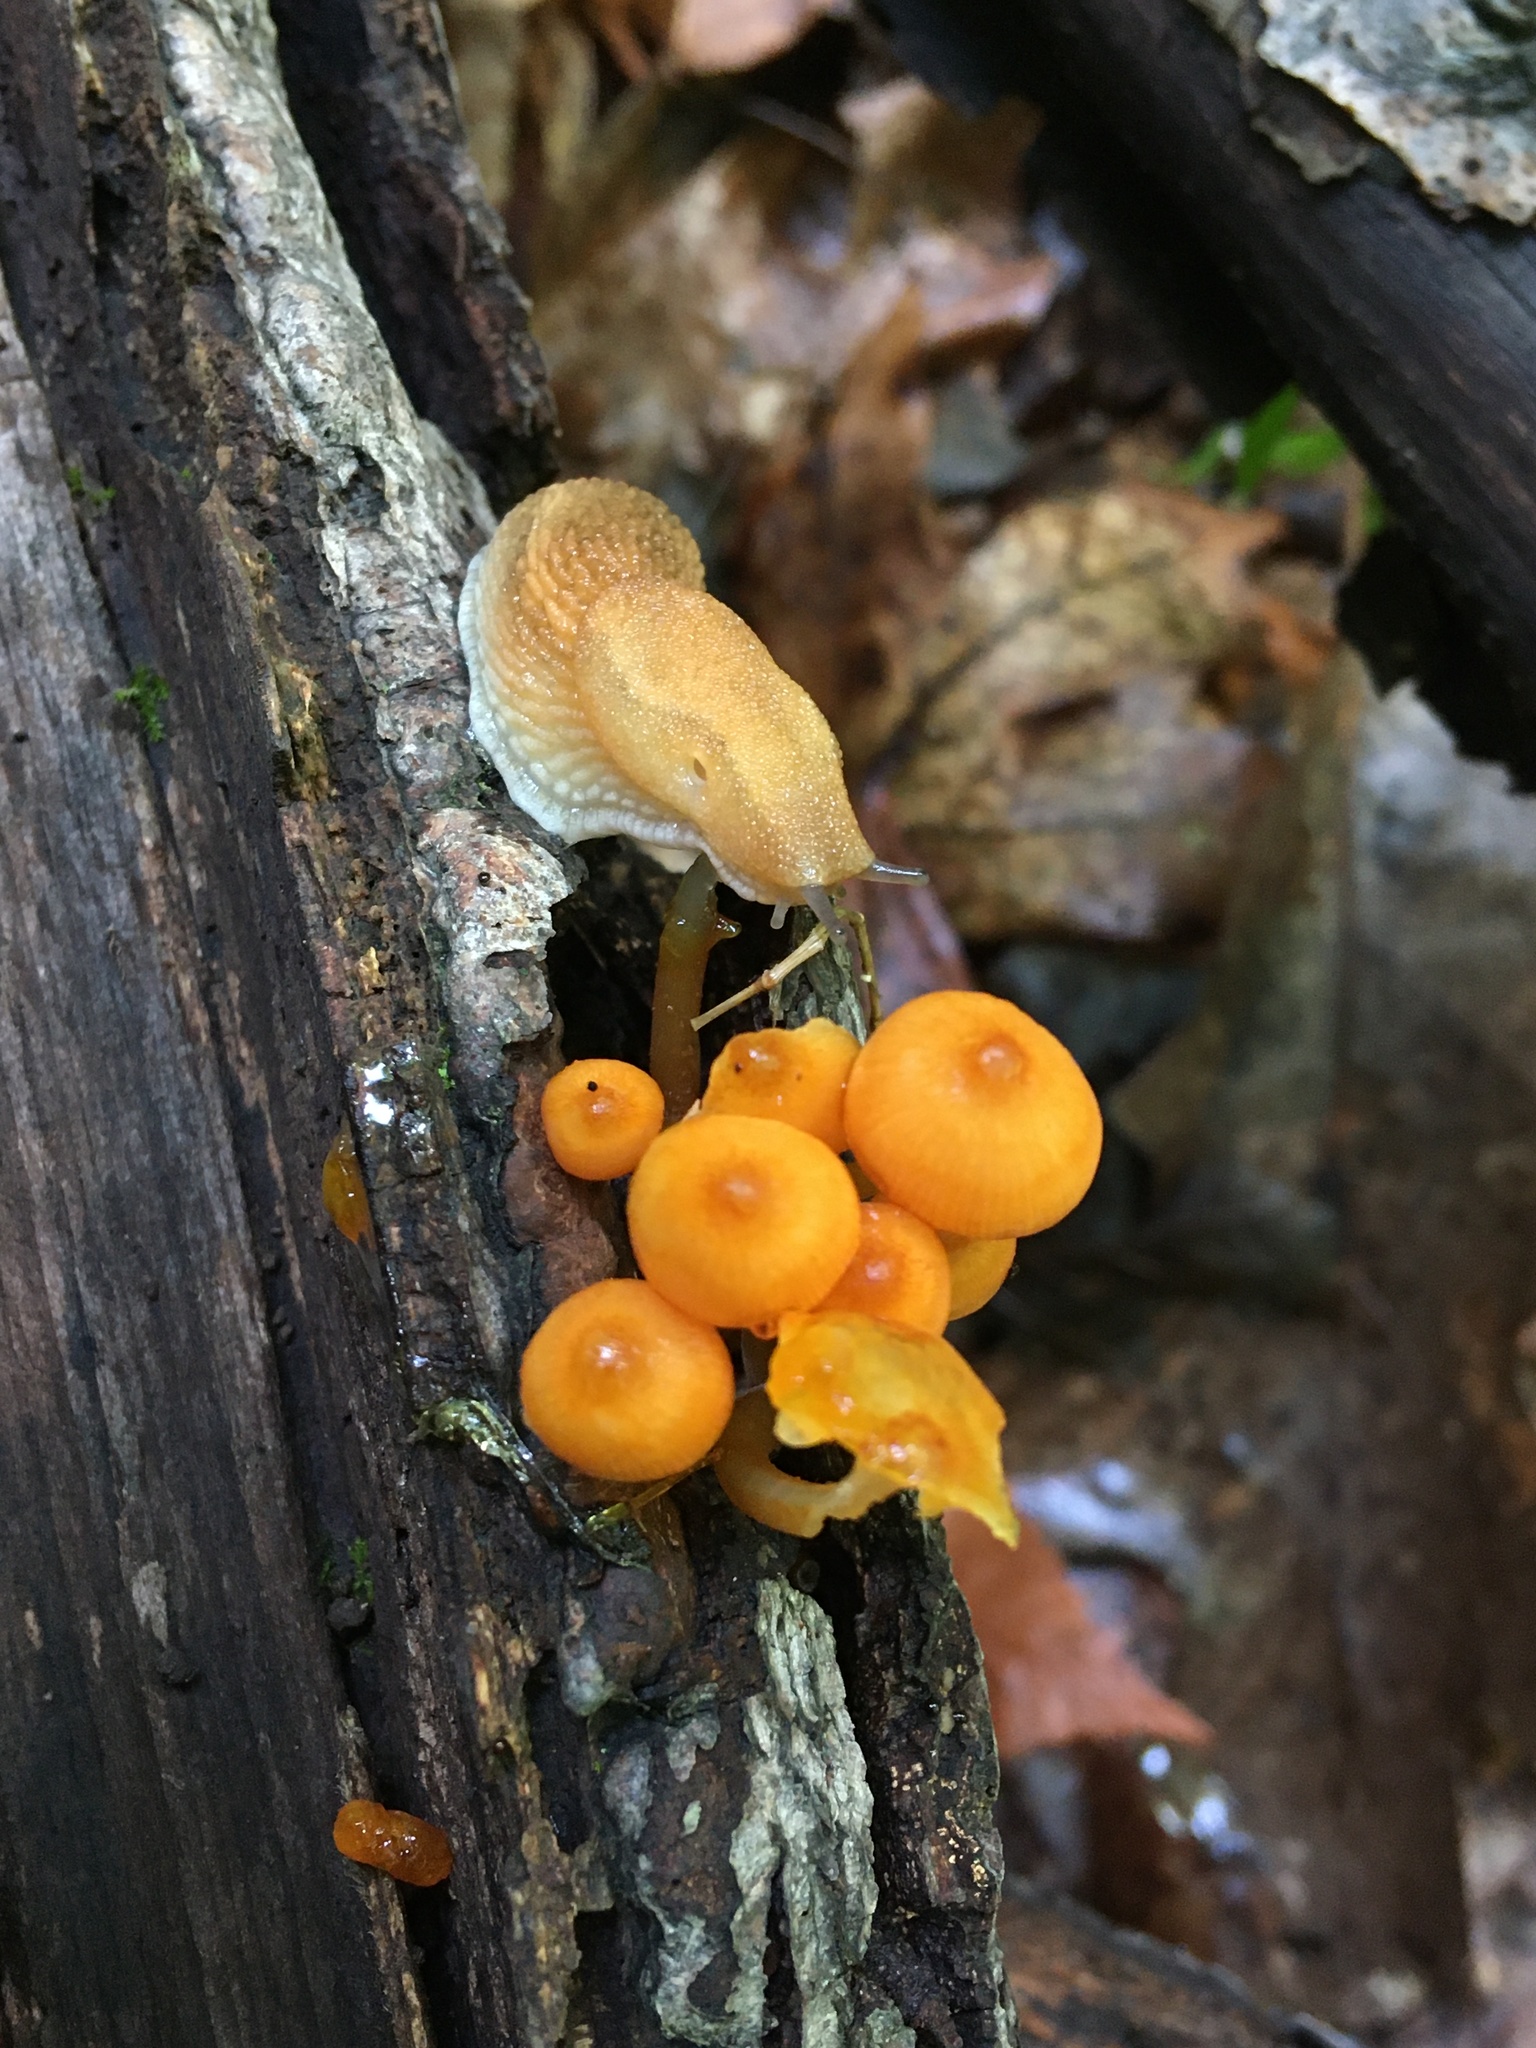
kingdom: Fungi
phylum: Basidiomycota
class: Agaricomycetes
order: Agaricales
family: Mycenaceae
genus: Mycena
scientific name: Mycena leaiana
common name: Orange mycena
